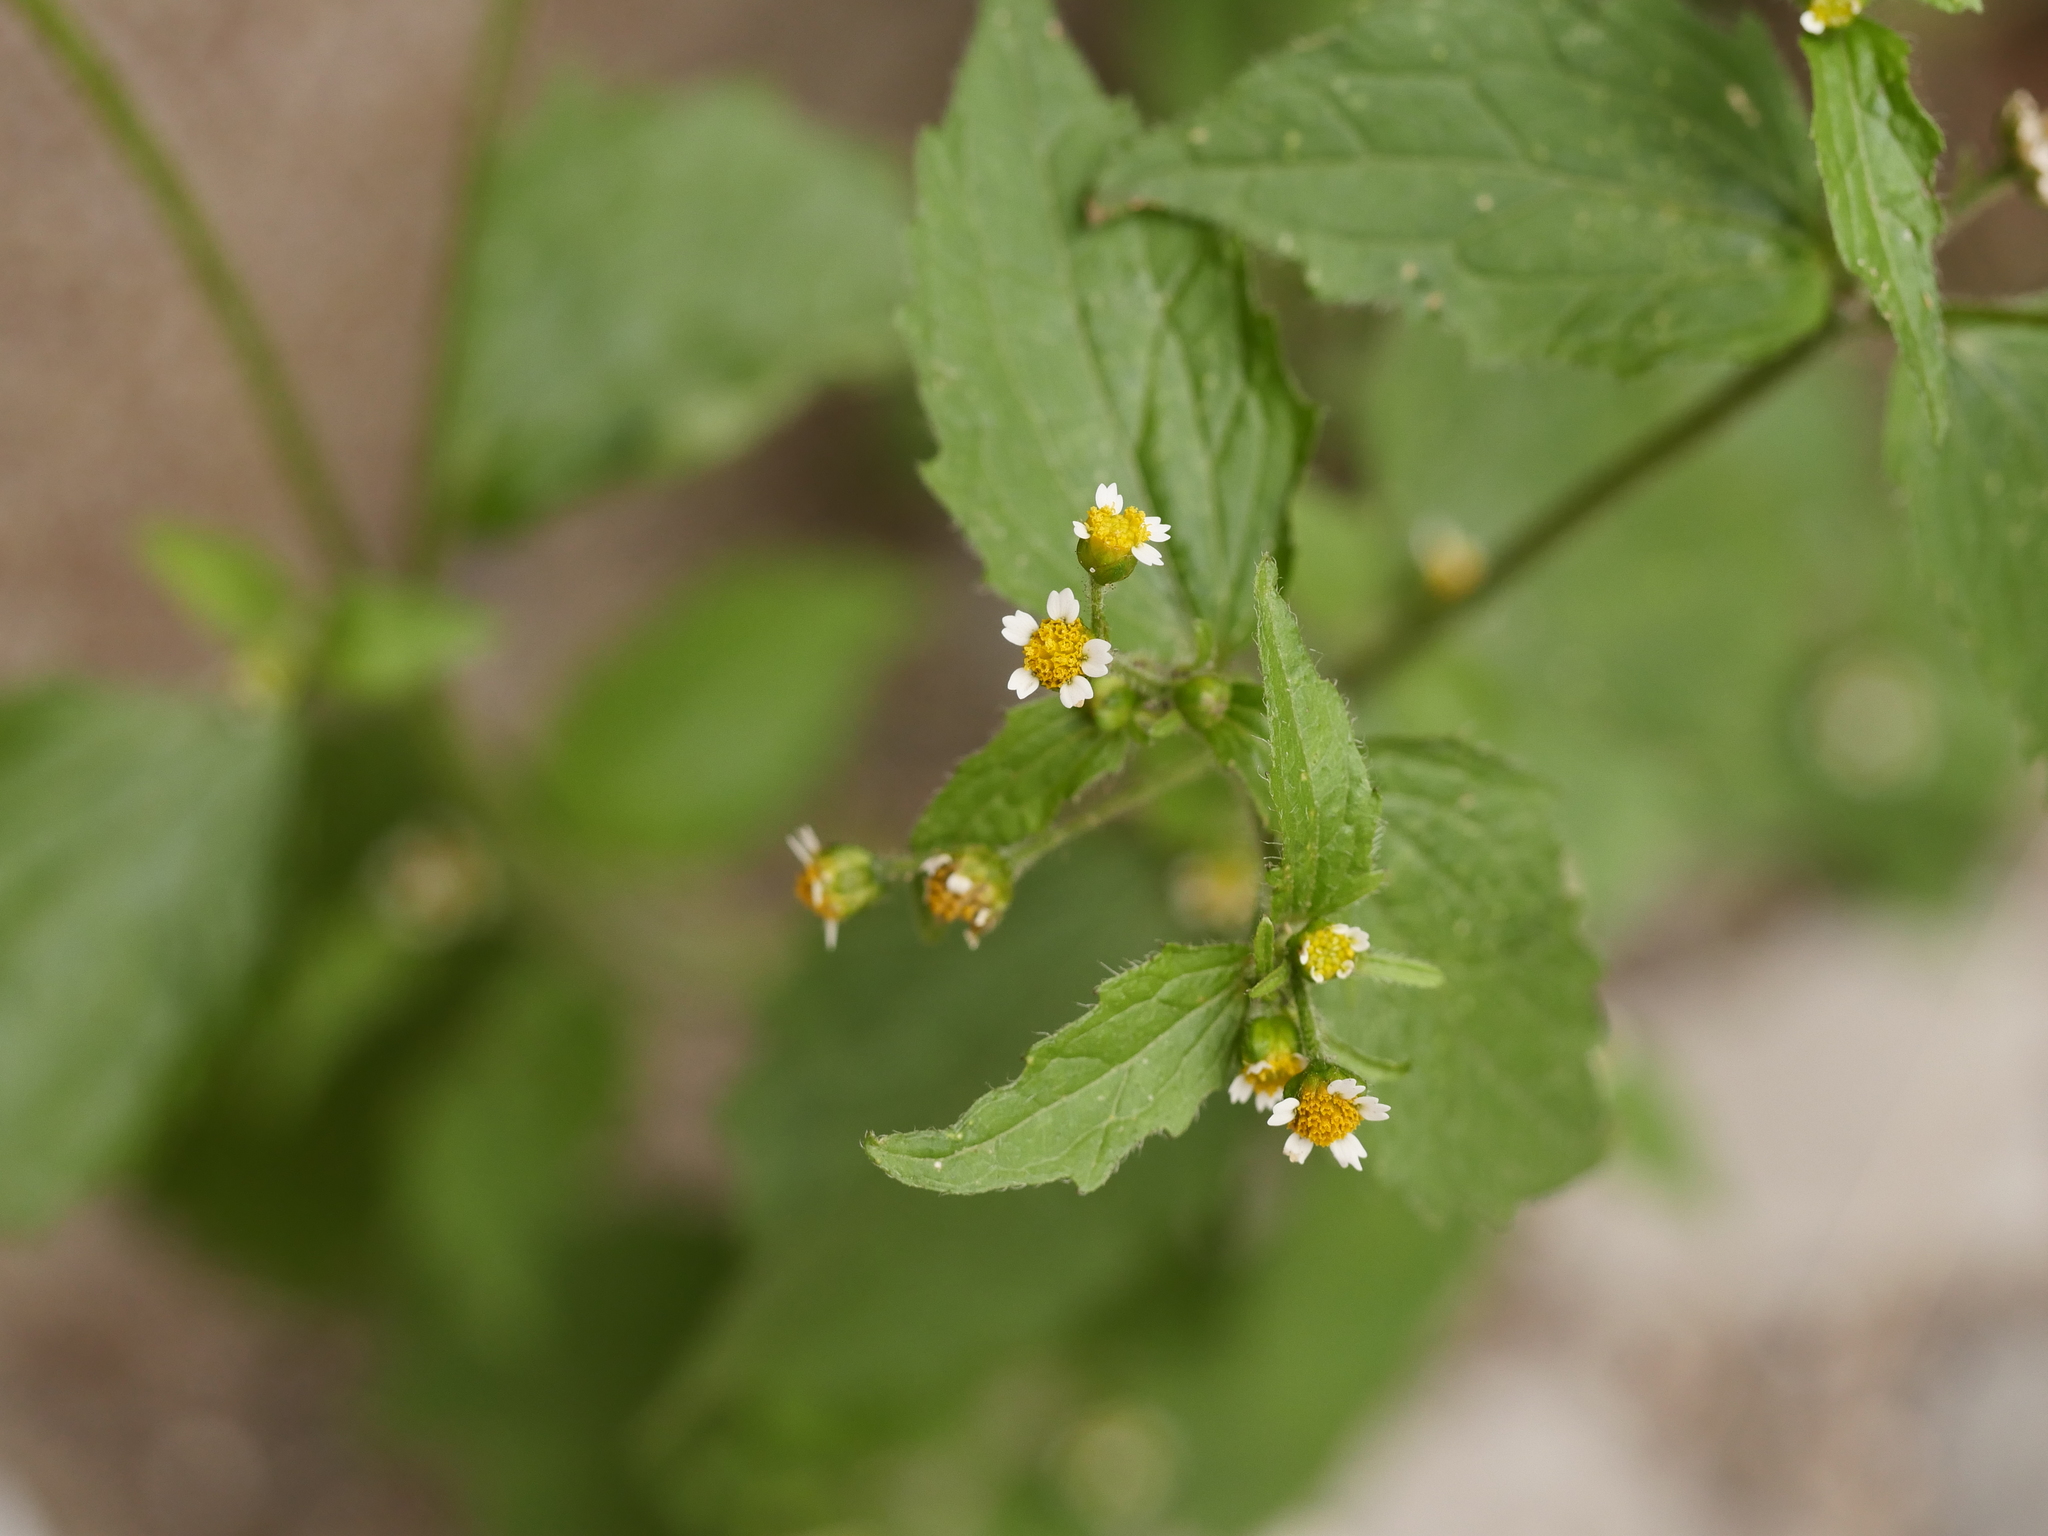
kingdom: Plantae
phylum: Tracheophyta
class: Magnoliopsida
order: Asterales
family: Asteraceae
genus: Galinsoga
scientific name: Galinsoga parviflora
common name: Gallant soldier
